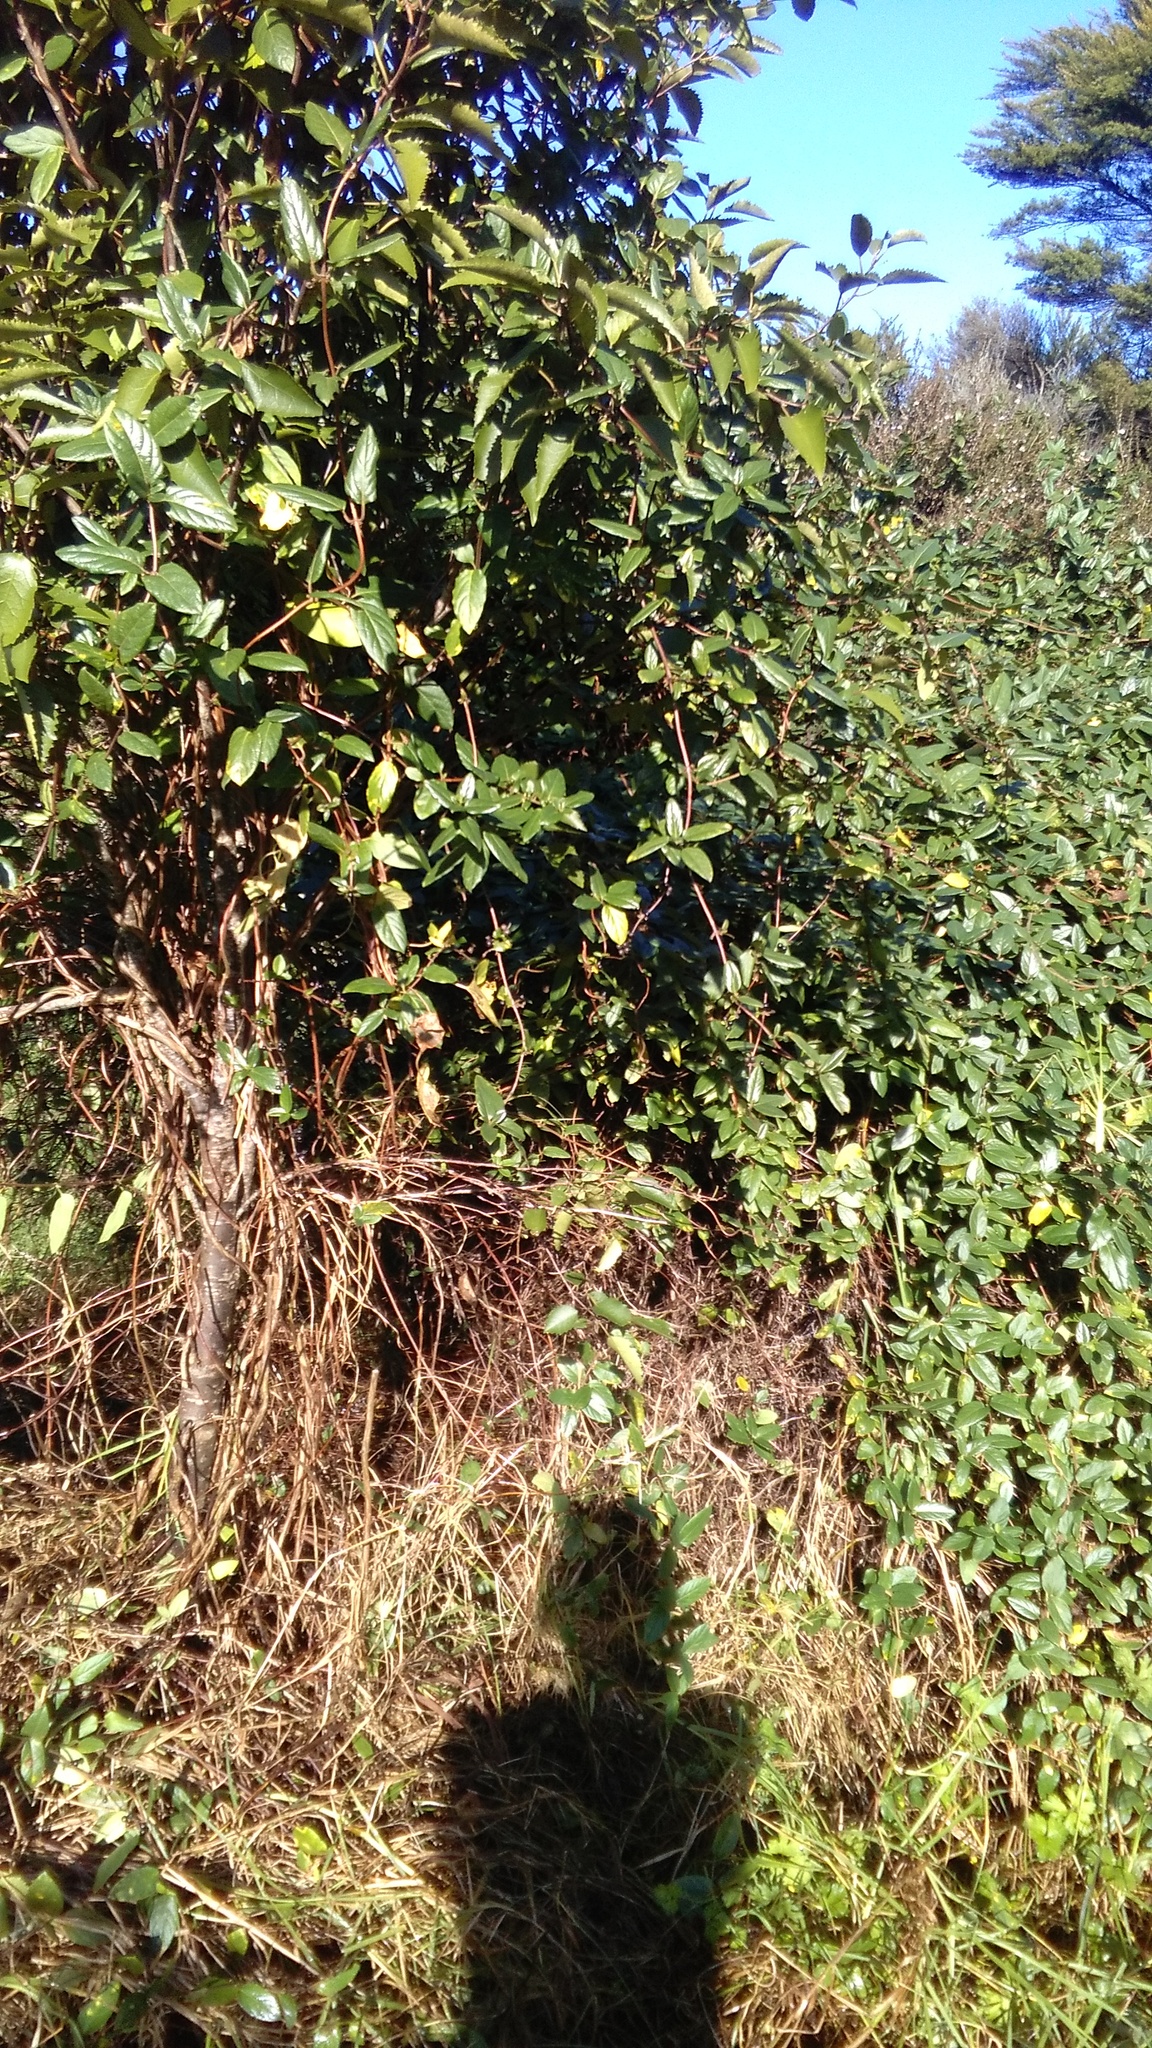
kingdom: Plantae
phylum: Tracheophyta
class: Magnoliopsida
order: Dipsacales
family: Caprifoliaceae
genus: Lonicera
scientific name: Lonicera japonica
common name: Japanese honeysuckle
